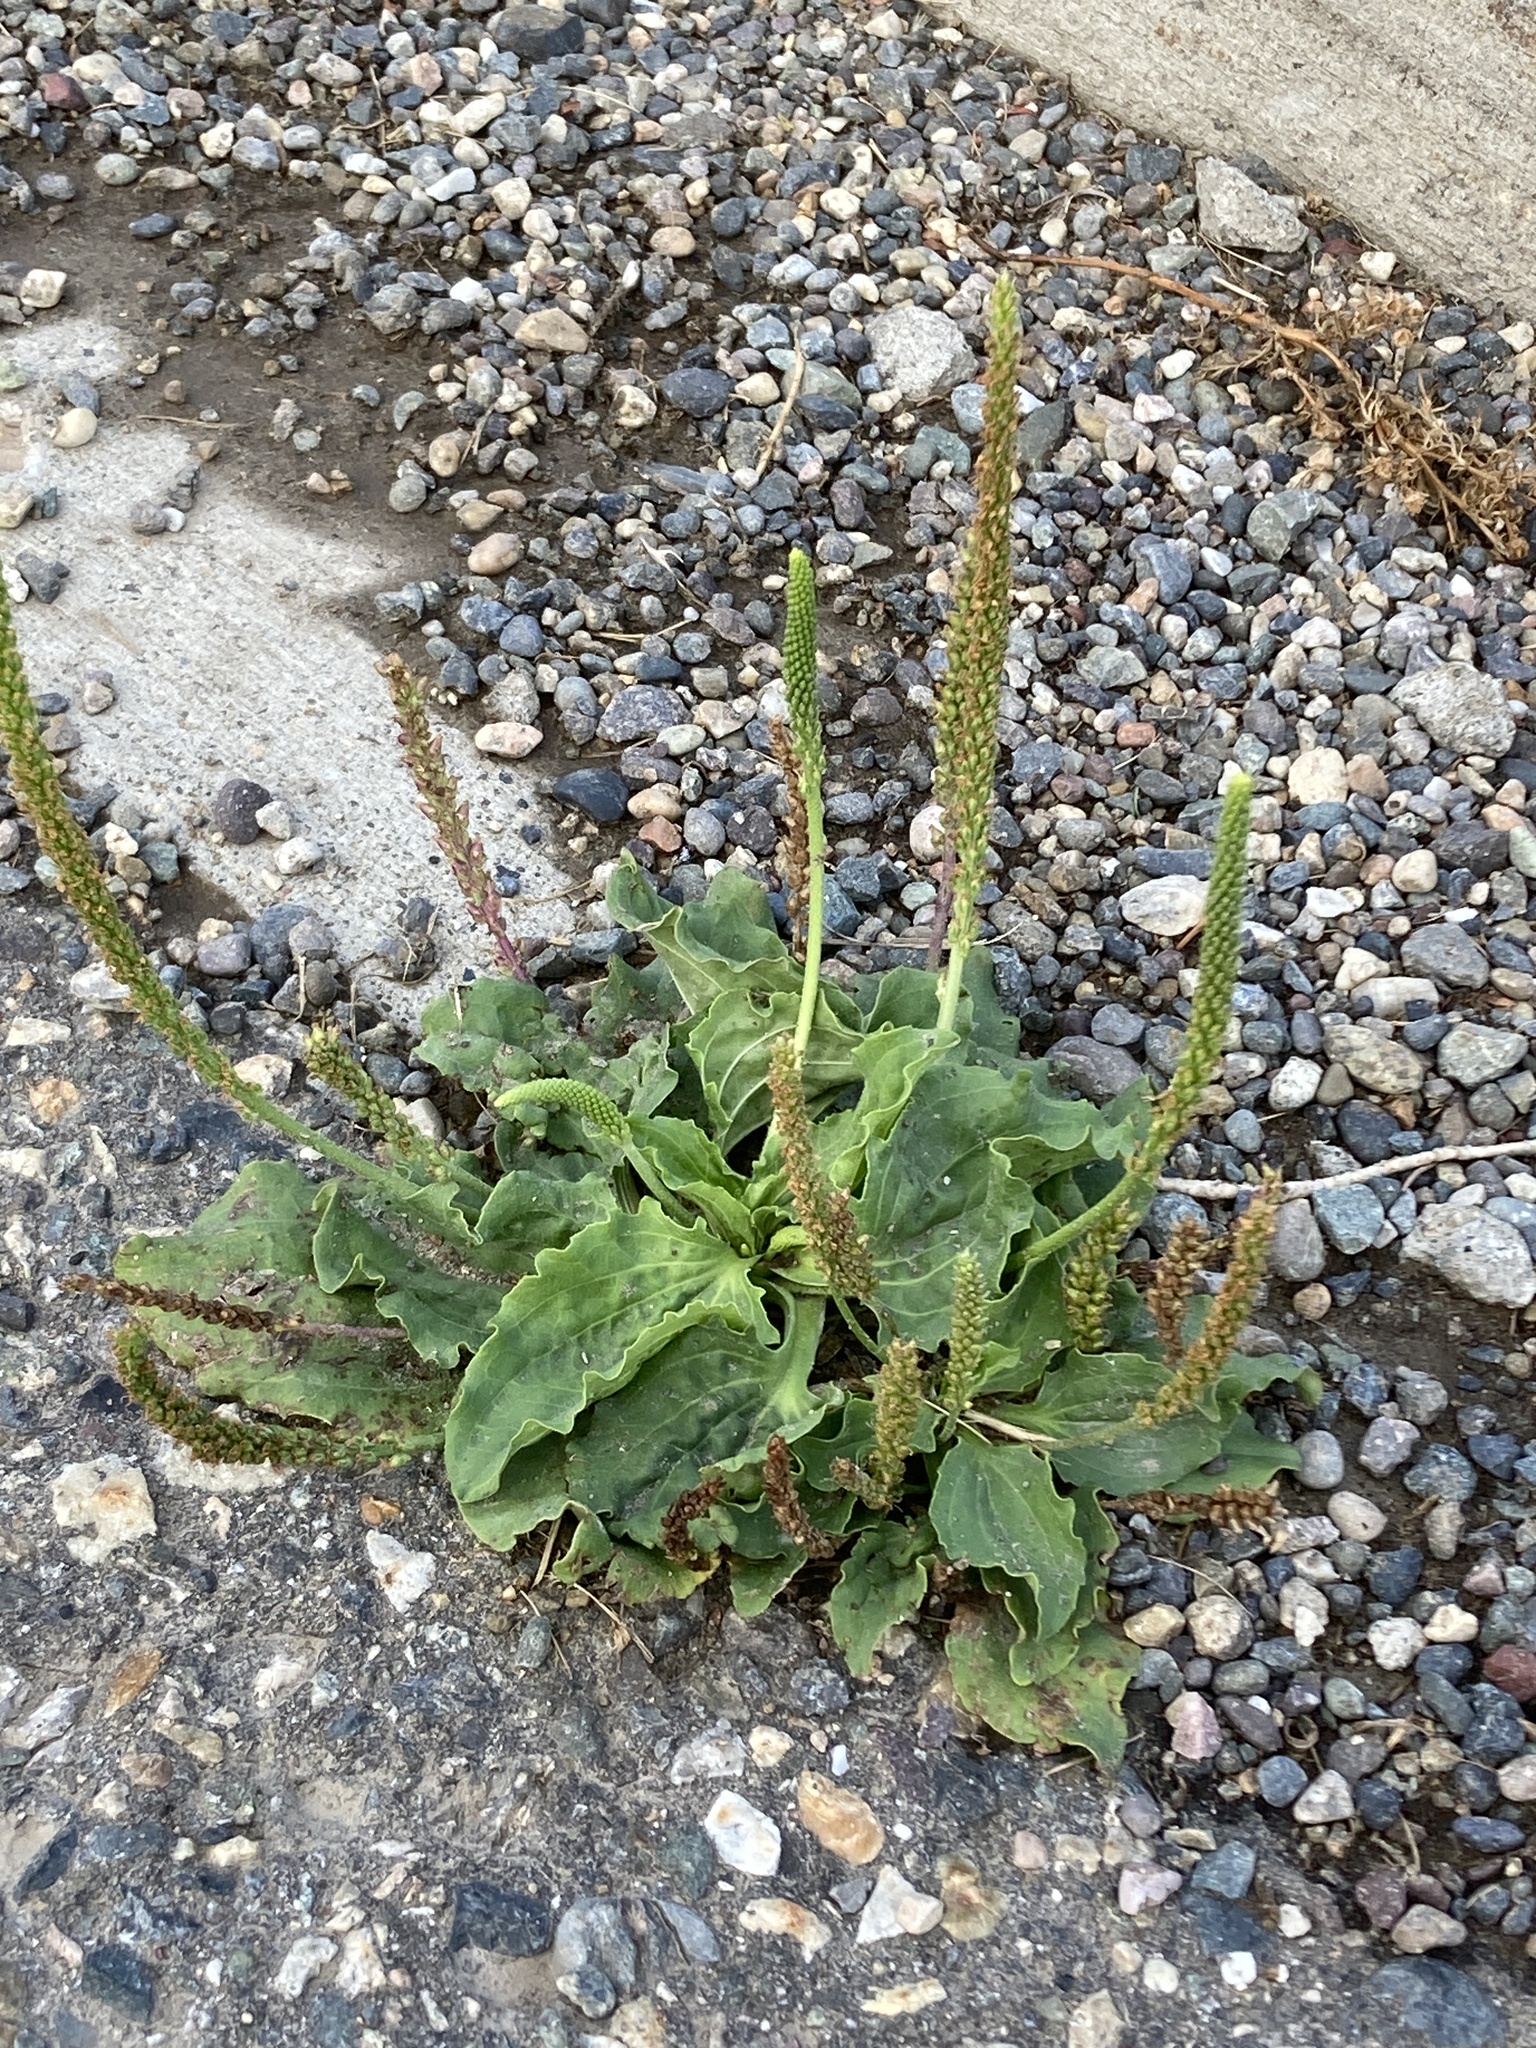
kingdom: Plantae
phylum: Tracheophyta
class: Magnoliopsida
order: Lamiales
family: Plantaginaceae
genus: Plantago
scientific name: Plantago major
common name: Common plantain
